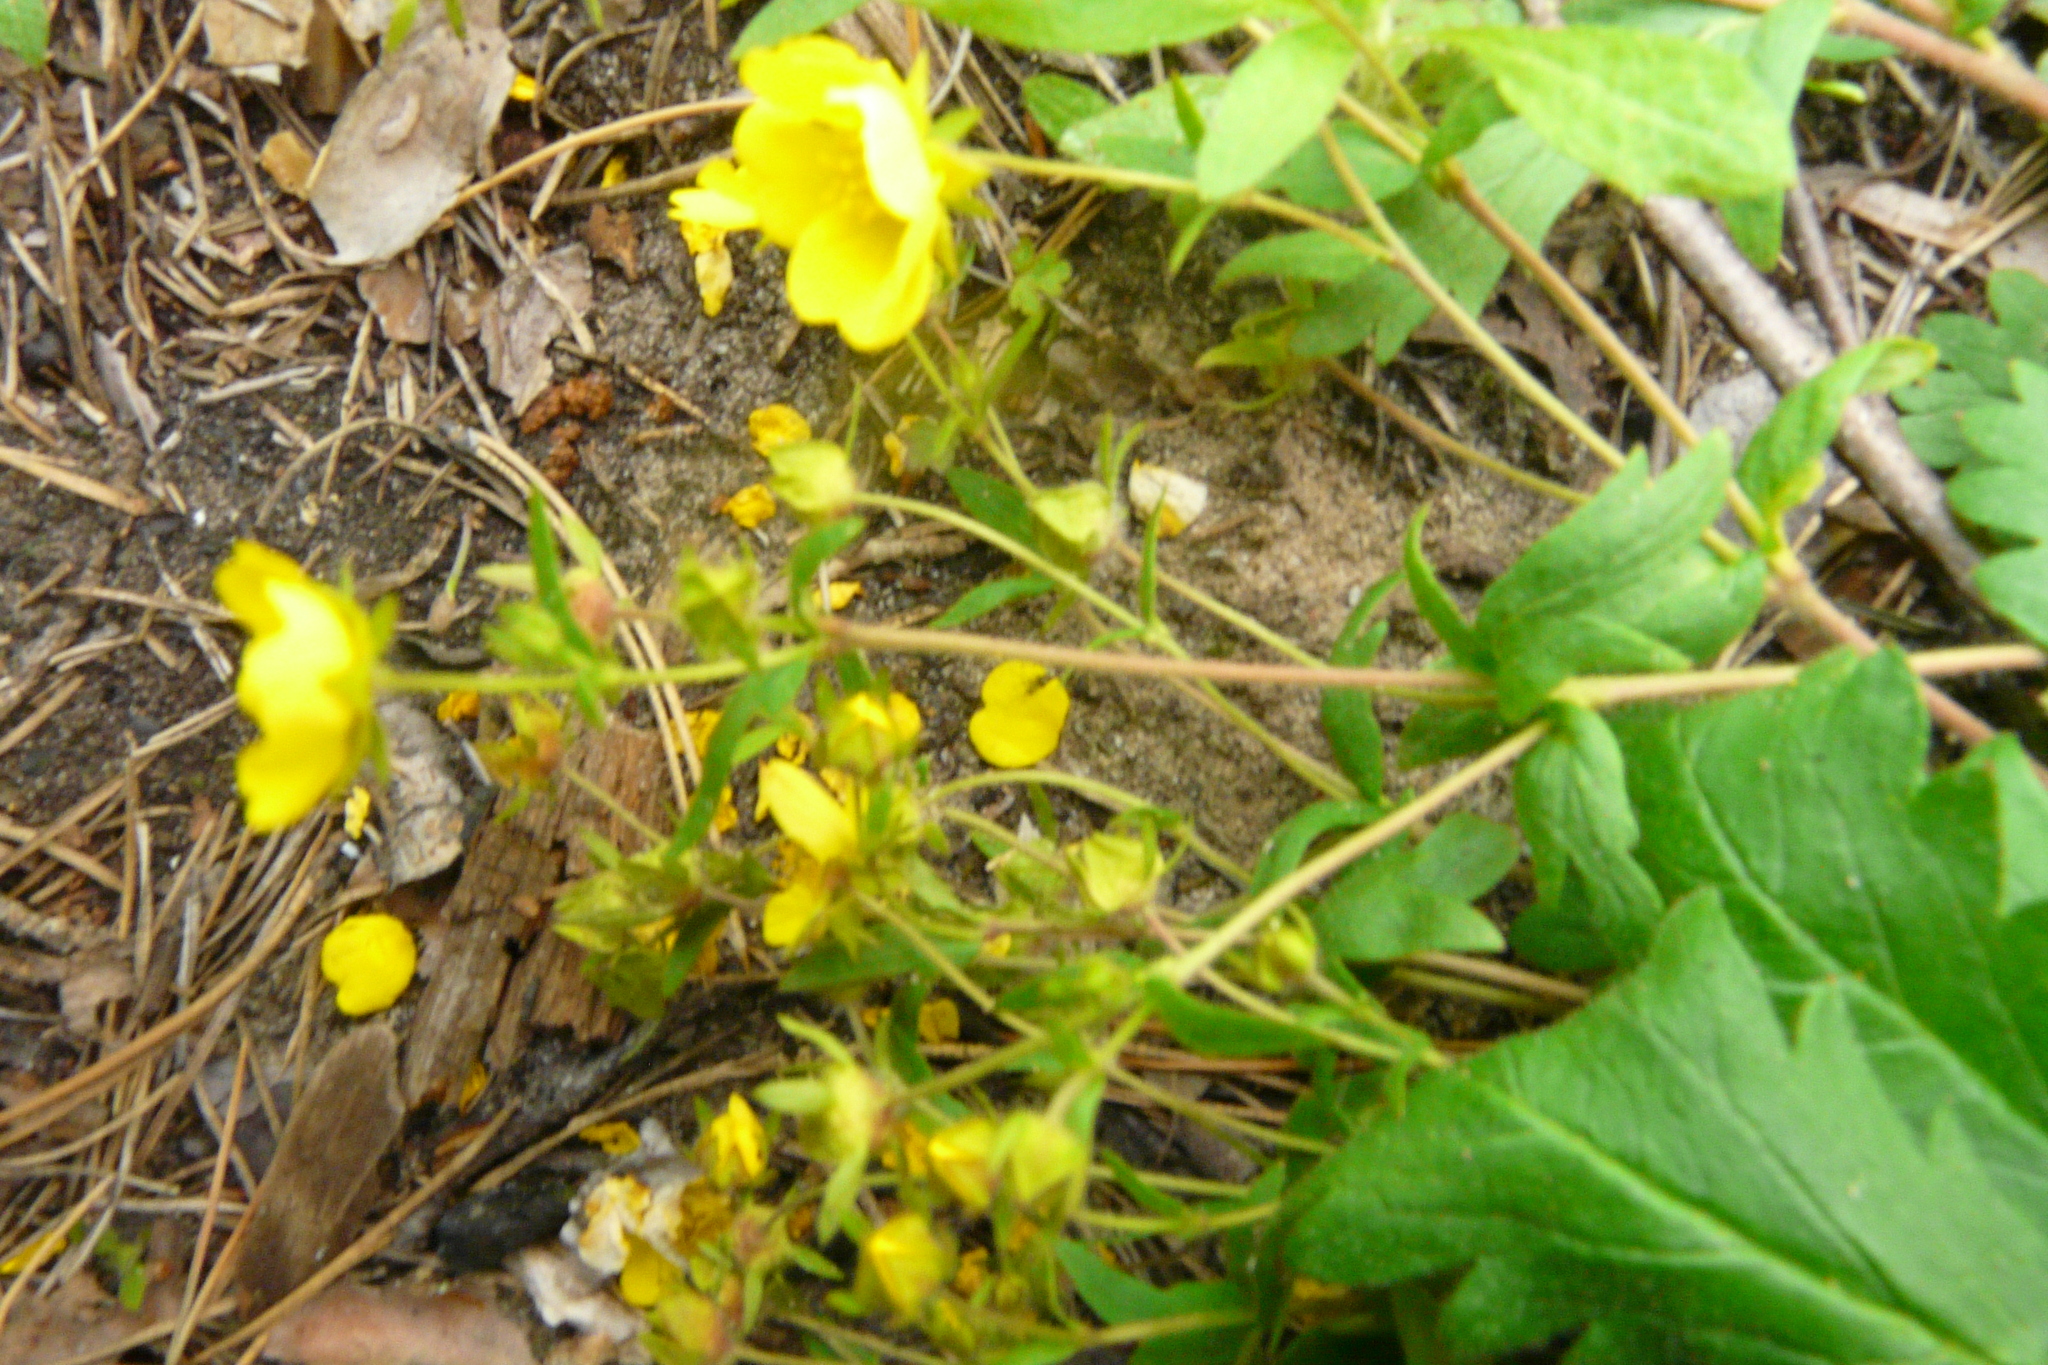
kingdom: Plantae
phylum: Tracheophyta
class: Magnoliopsida
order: Rosales
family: Rosaceae
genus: Potentilla
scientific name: Potentilla humifusa
